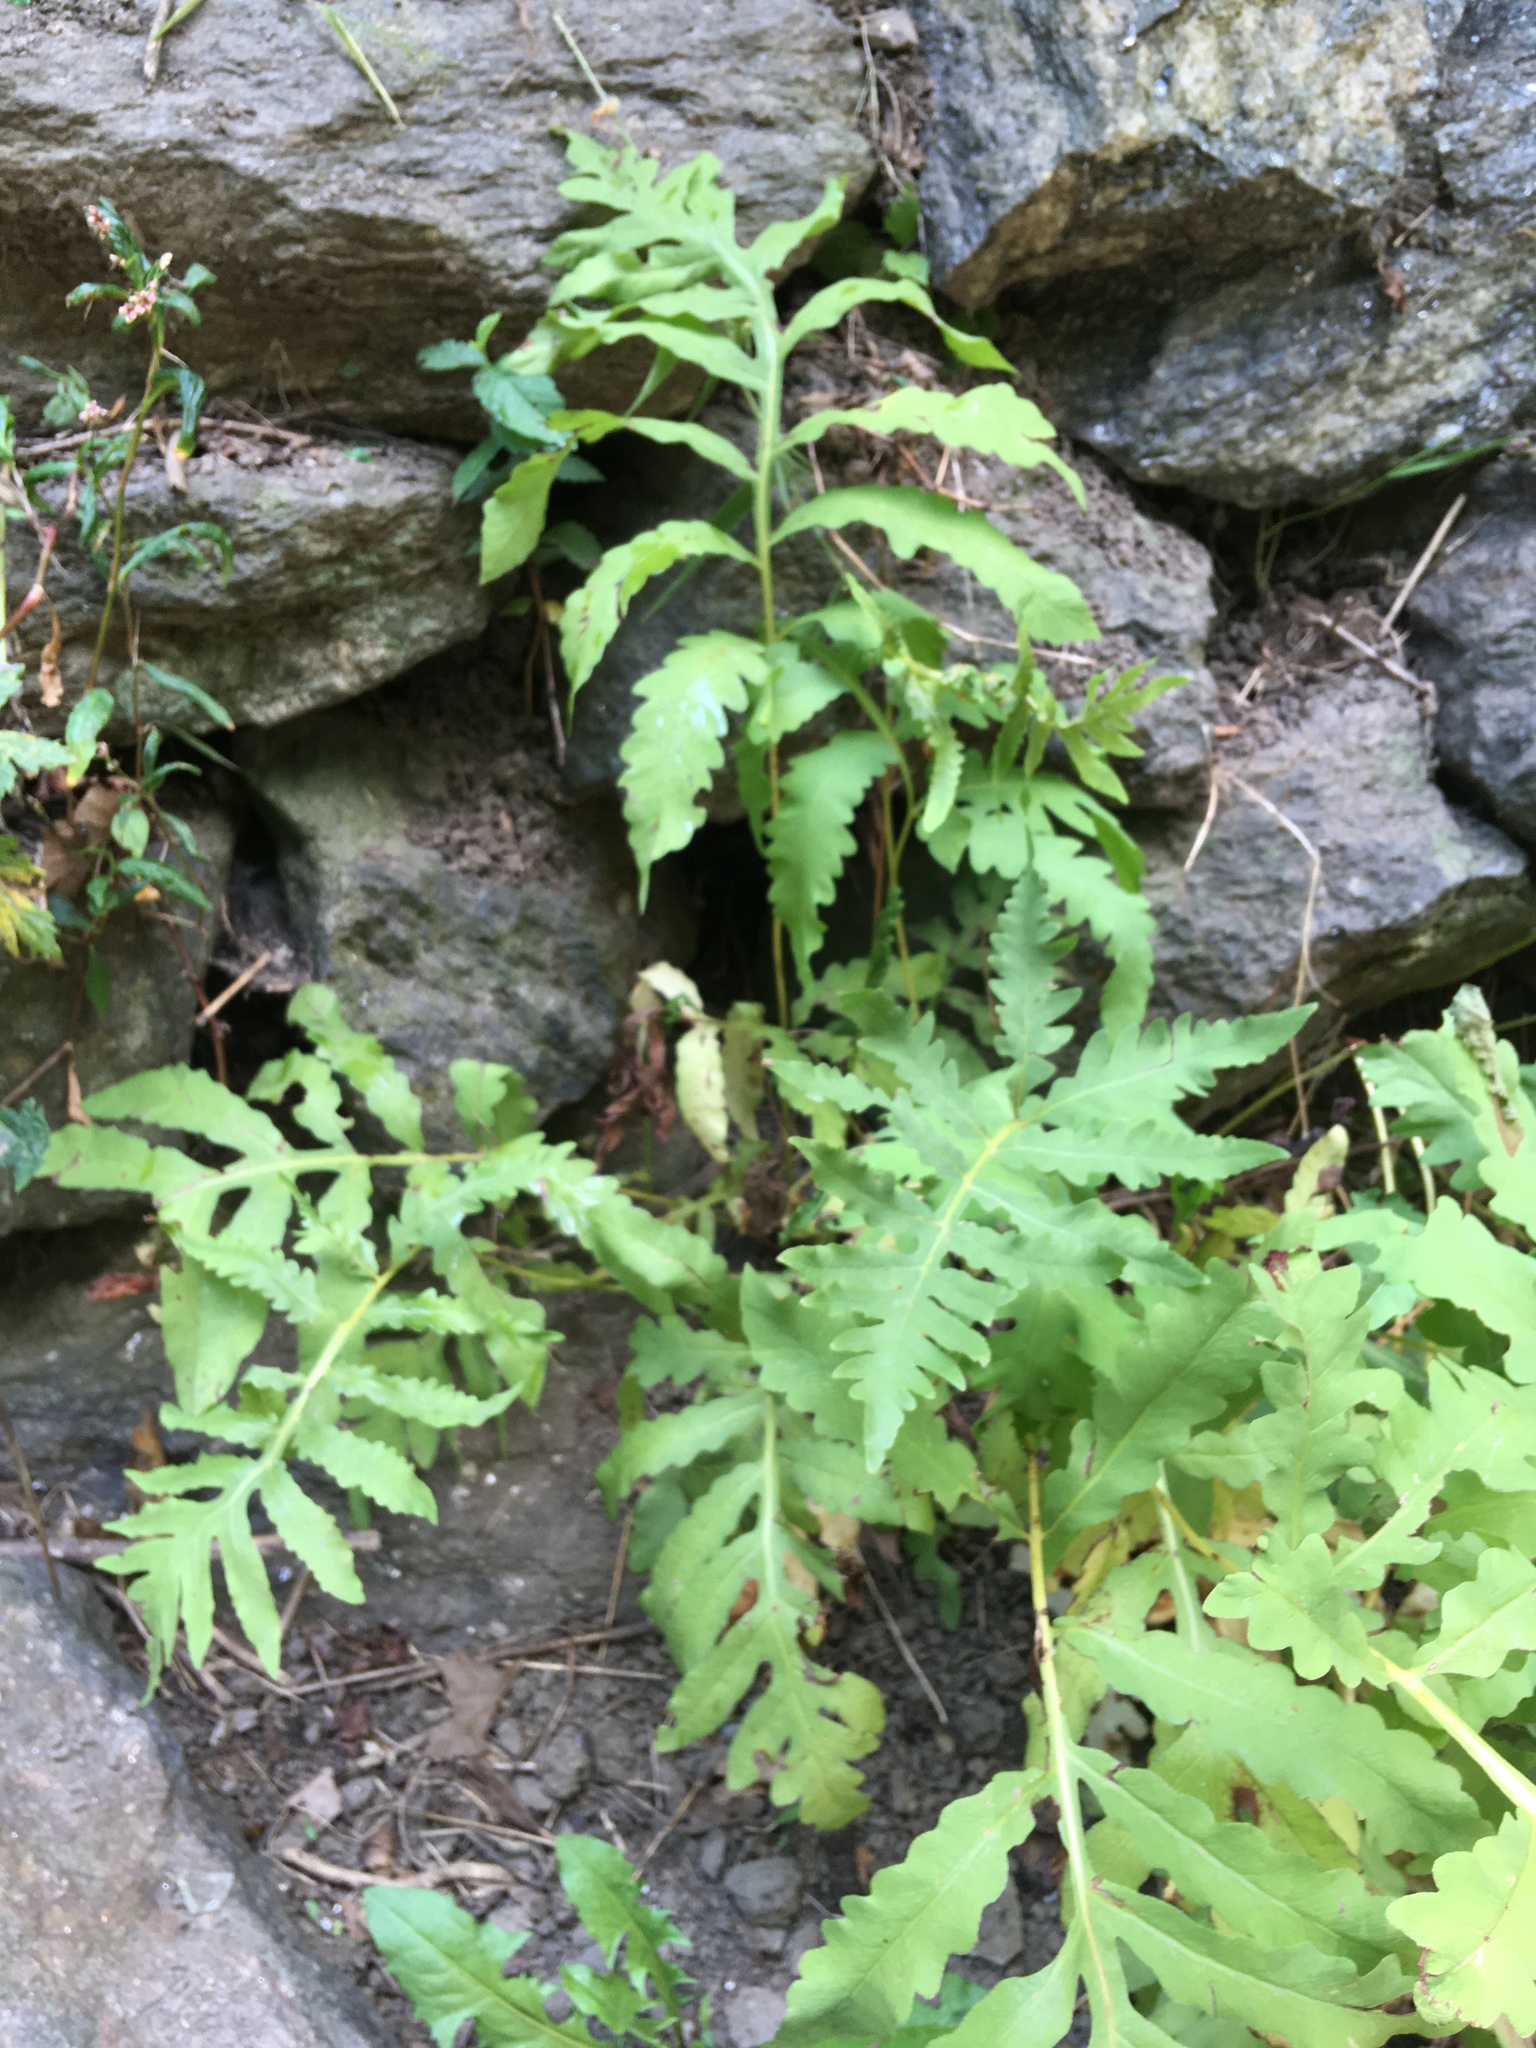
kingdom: Plantae
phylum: Tracheophyta
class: Polypodiopsida
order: Polypodiales
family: Onocleaceae
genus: Onoclea
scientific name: Onoclea sensibilis
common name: Sensitive fern
